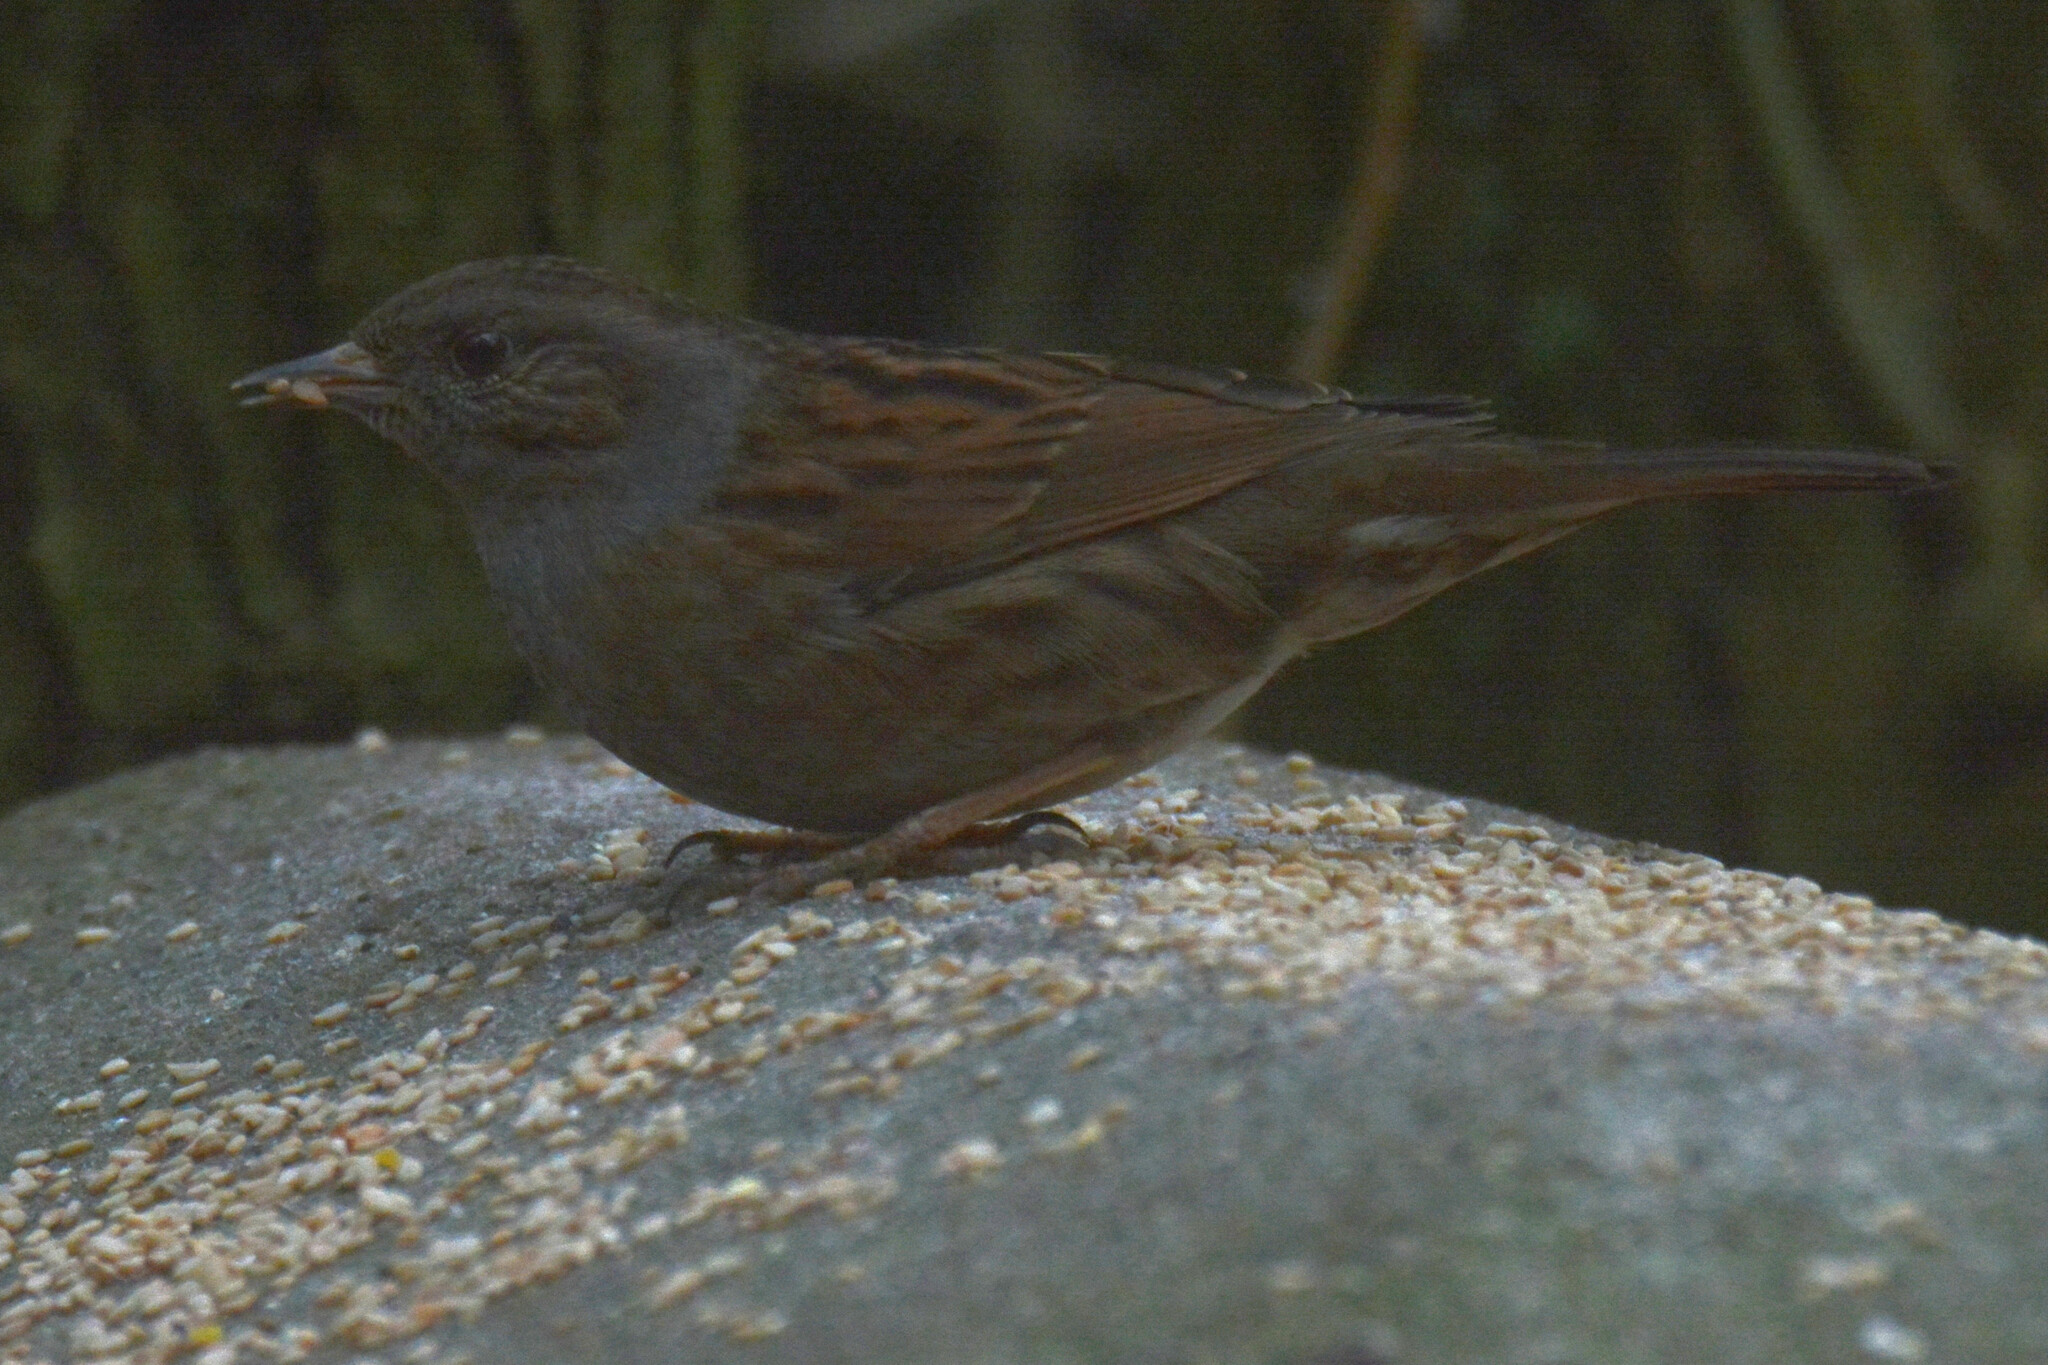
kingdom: Animalia
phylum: Chordata
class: Aves
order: Passeriformes
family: Prunellidae
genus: Prunella
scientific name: Prunella modularis
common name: Dunnock
